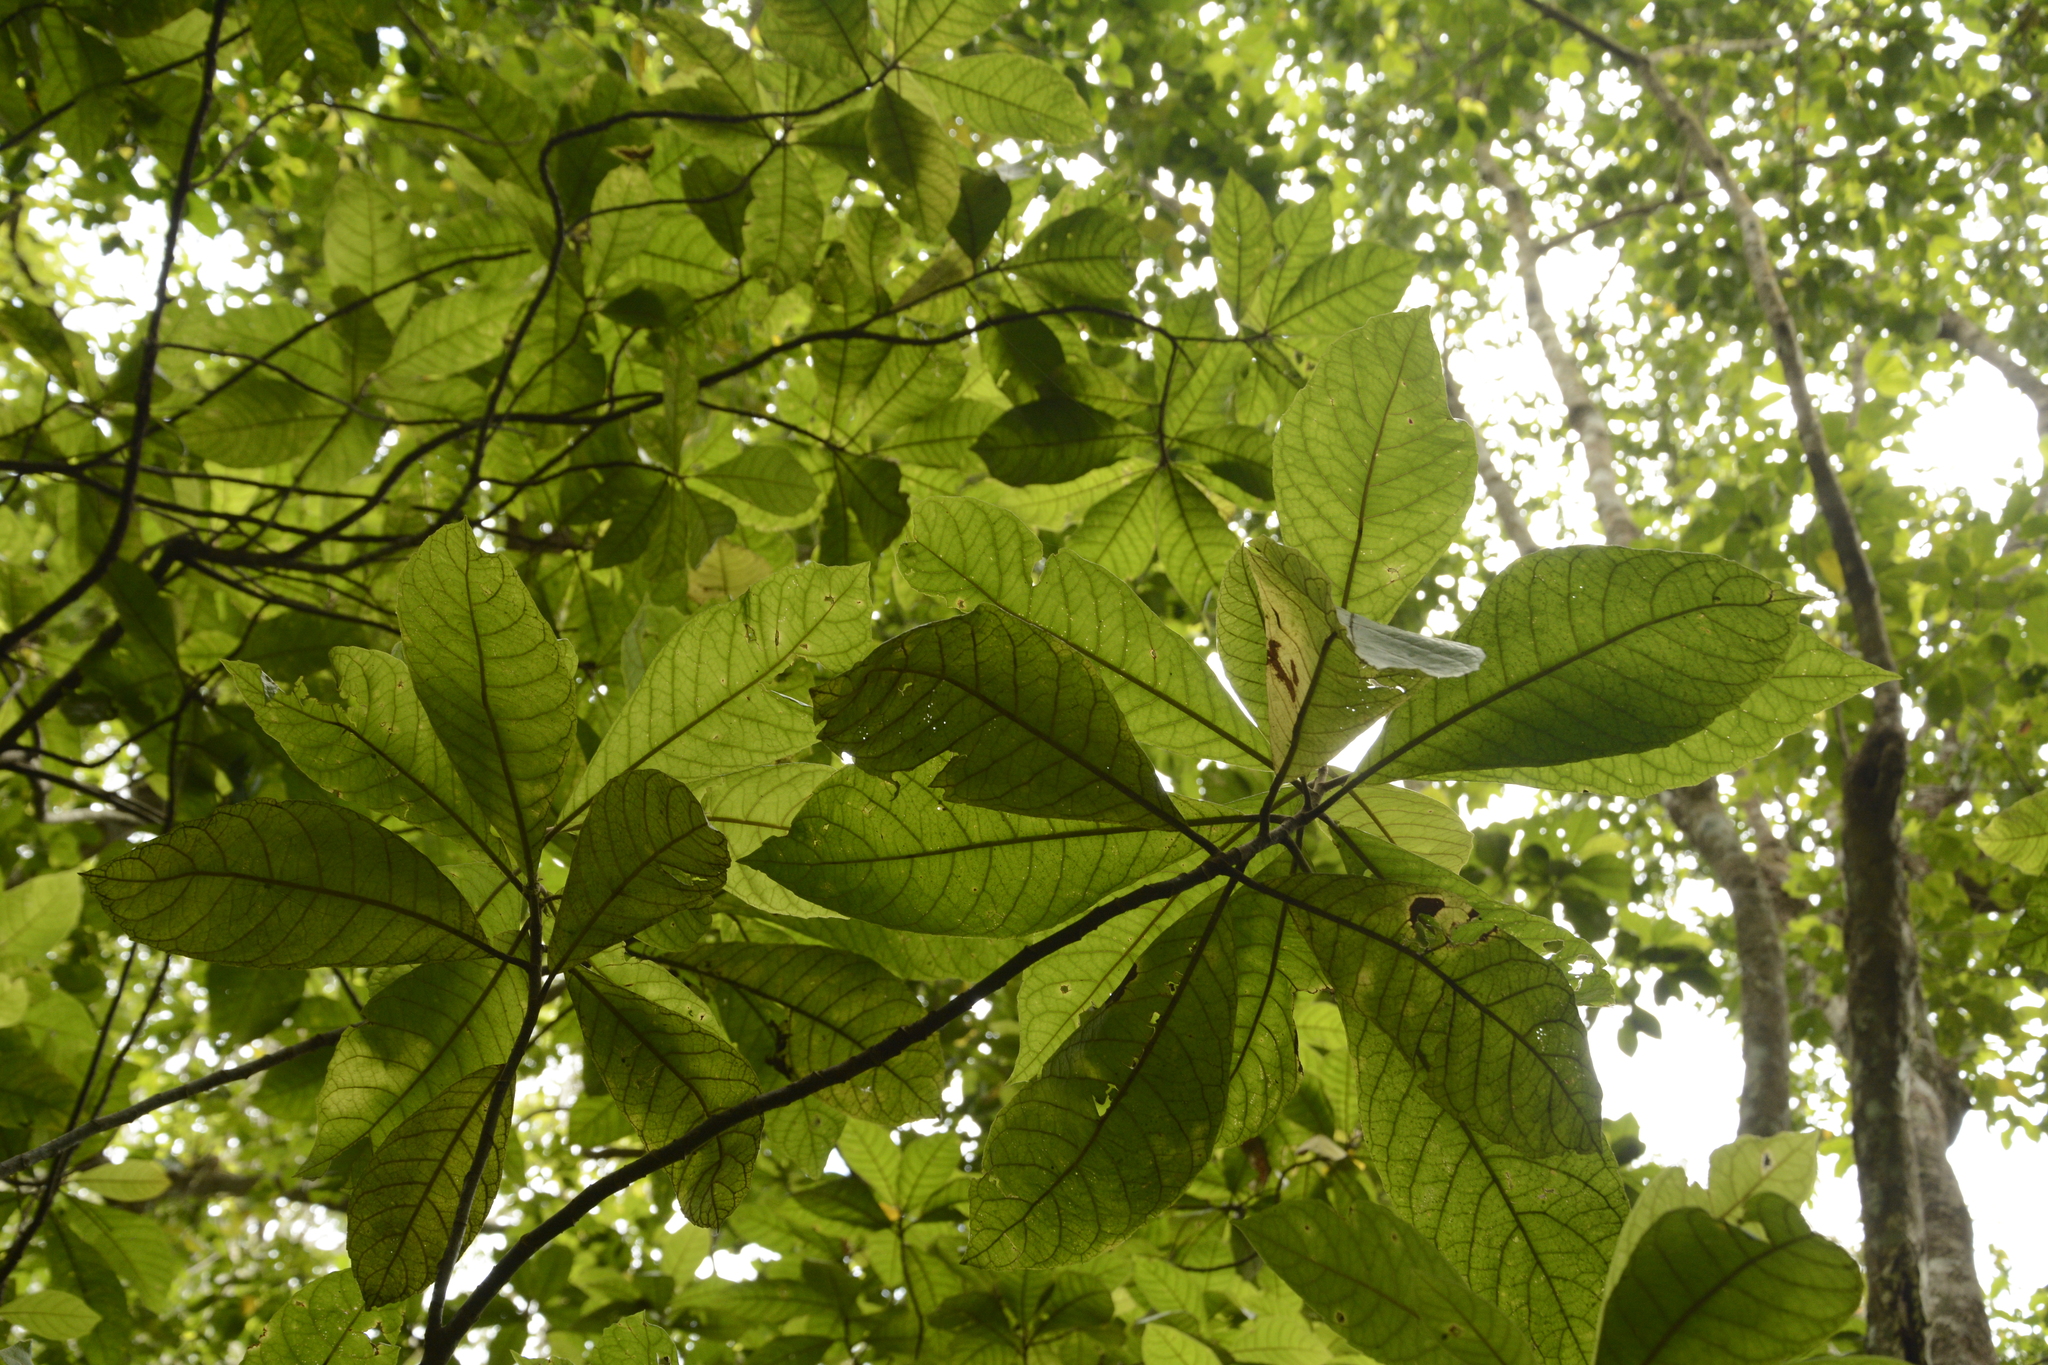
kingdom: Plantae
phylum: Tracheophyta
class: Magnoliopsida
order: Asterales
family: Asteraceae
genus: Strobocalyx
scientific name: Strobocalyx arborea
